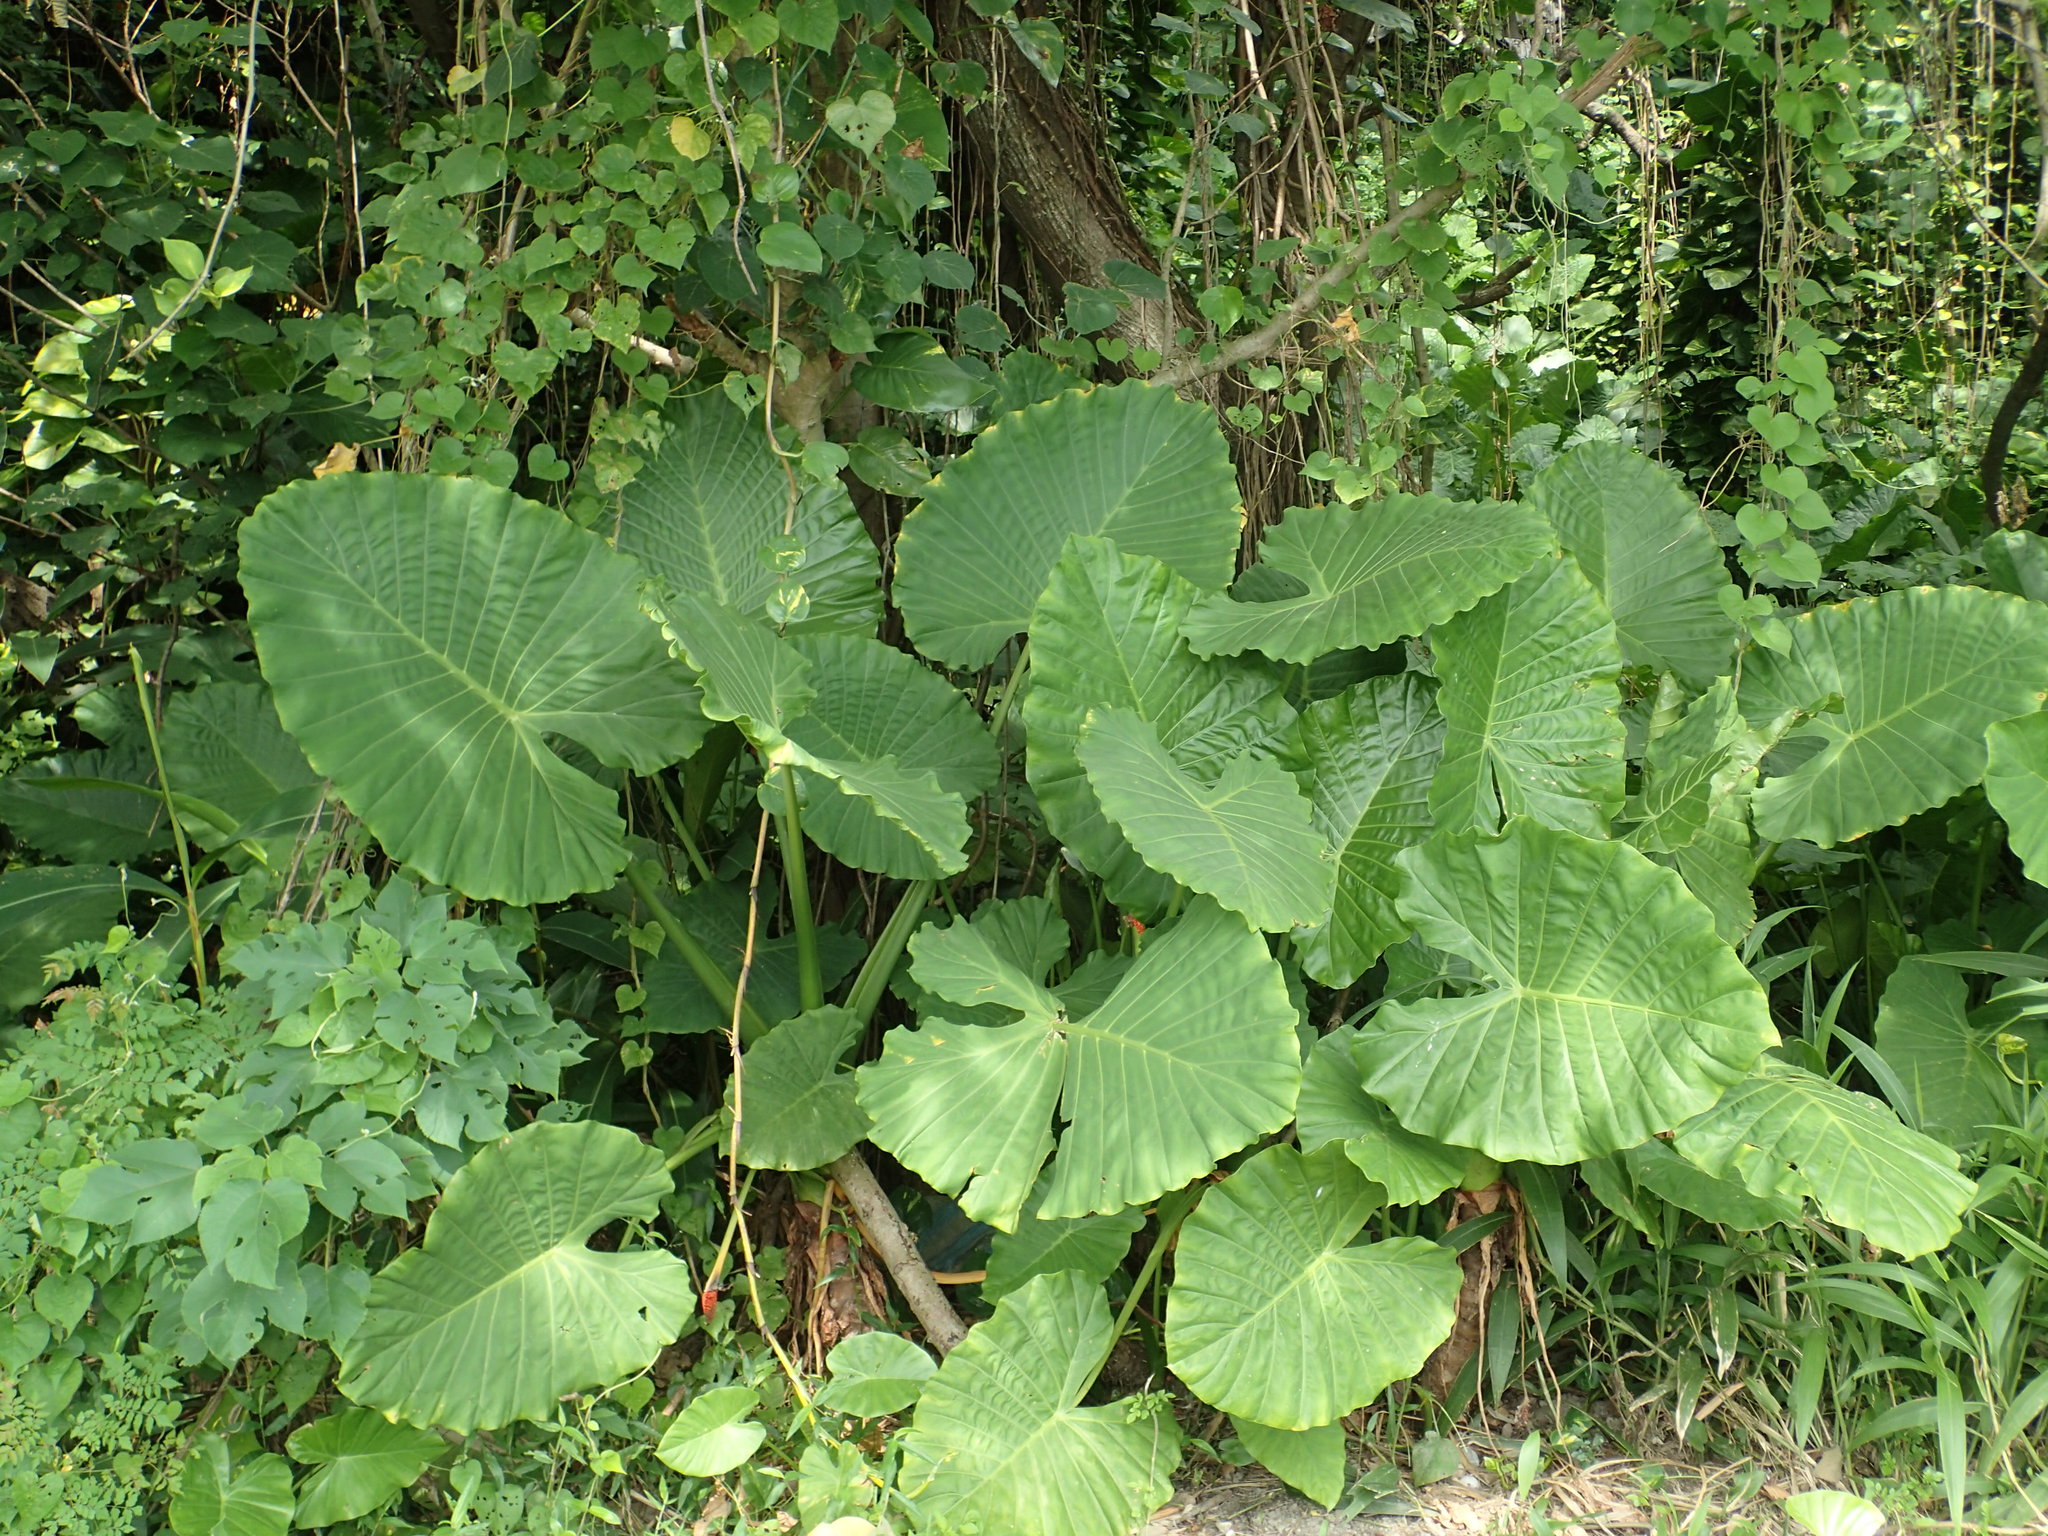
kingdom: Plantae
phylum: Tracheophyta
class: Liliopsida
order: Alismatales
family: Araceae
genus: Alocasia
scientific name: Alocasia odora
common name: Asian taro
